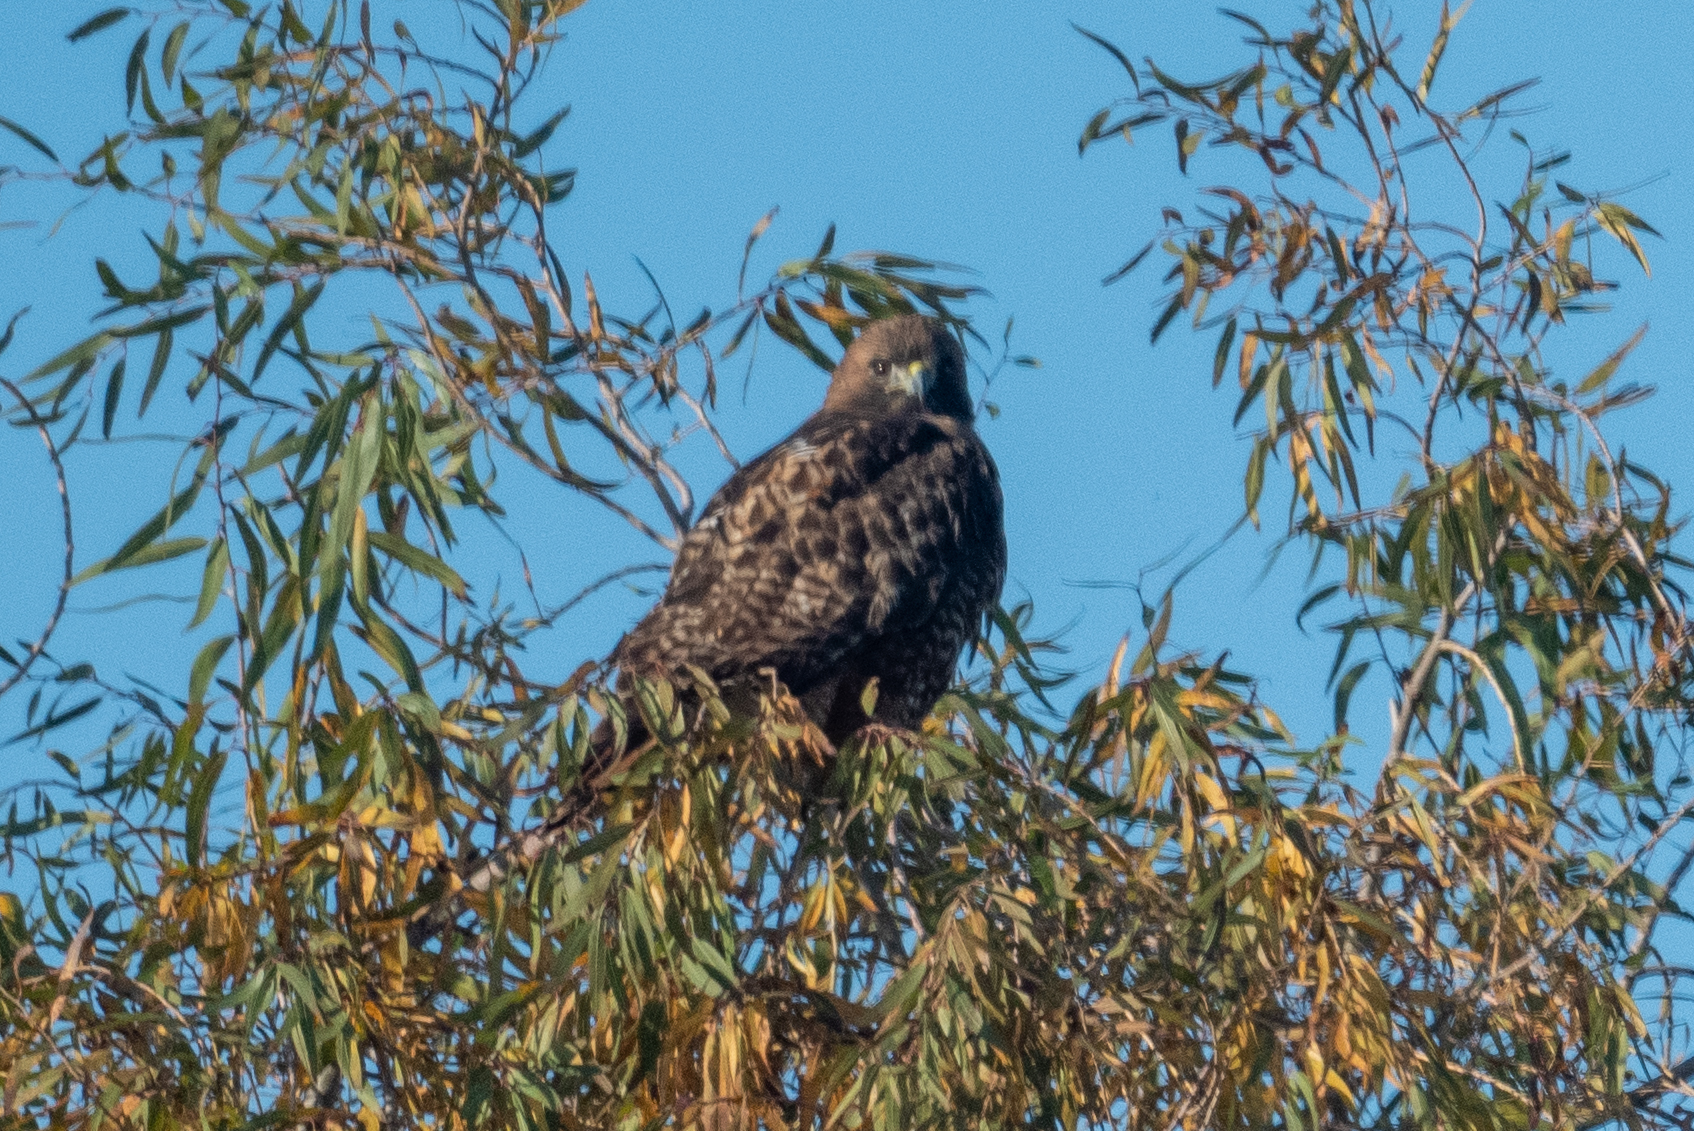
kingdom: Animalia
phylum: Chordata
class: Aves
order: Accipitriformes
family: Accipitridae
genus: Buteo
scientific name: Buteo jamaicensis
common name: Red-tailed hawk
